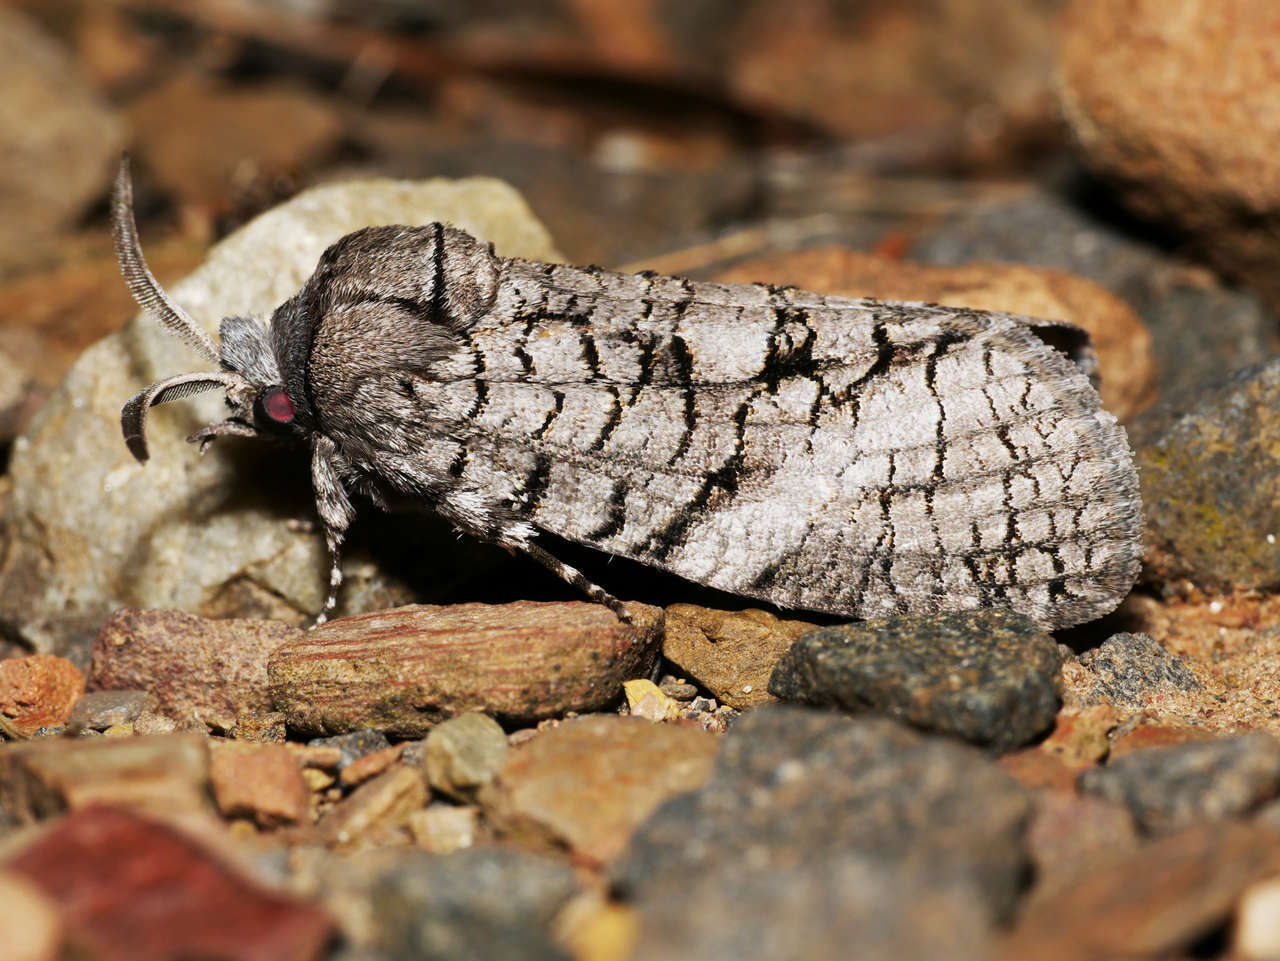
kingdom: Animalia
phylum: Arthropoda
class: Insecta
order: Lepidoptera
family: Cossidae
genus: Culama
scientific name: Culama australis
